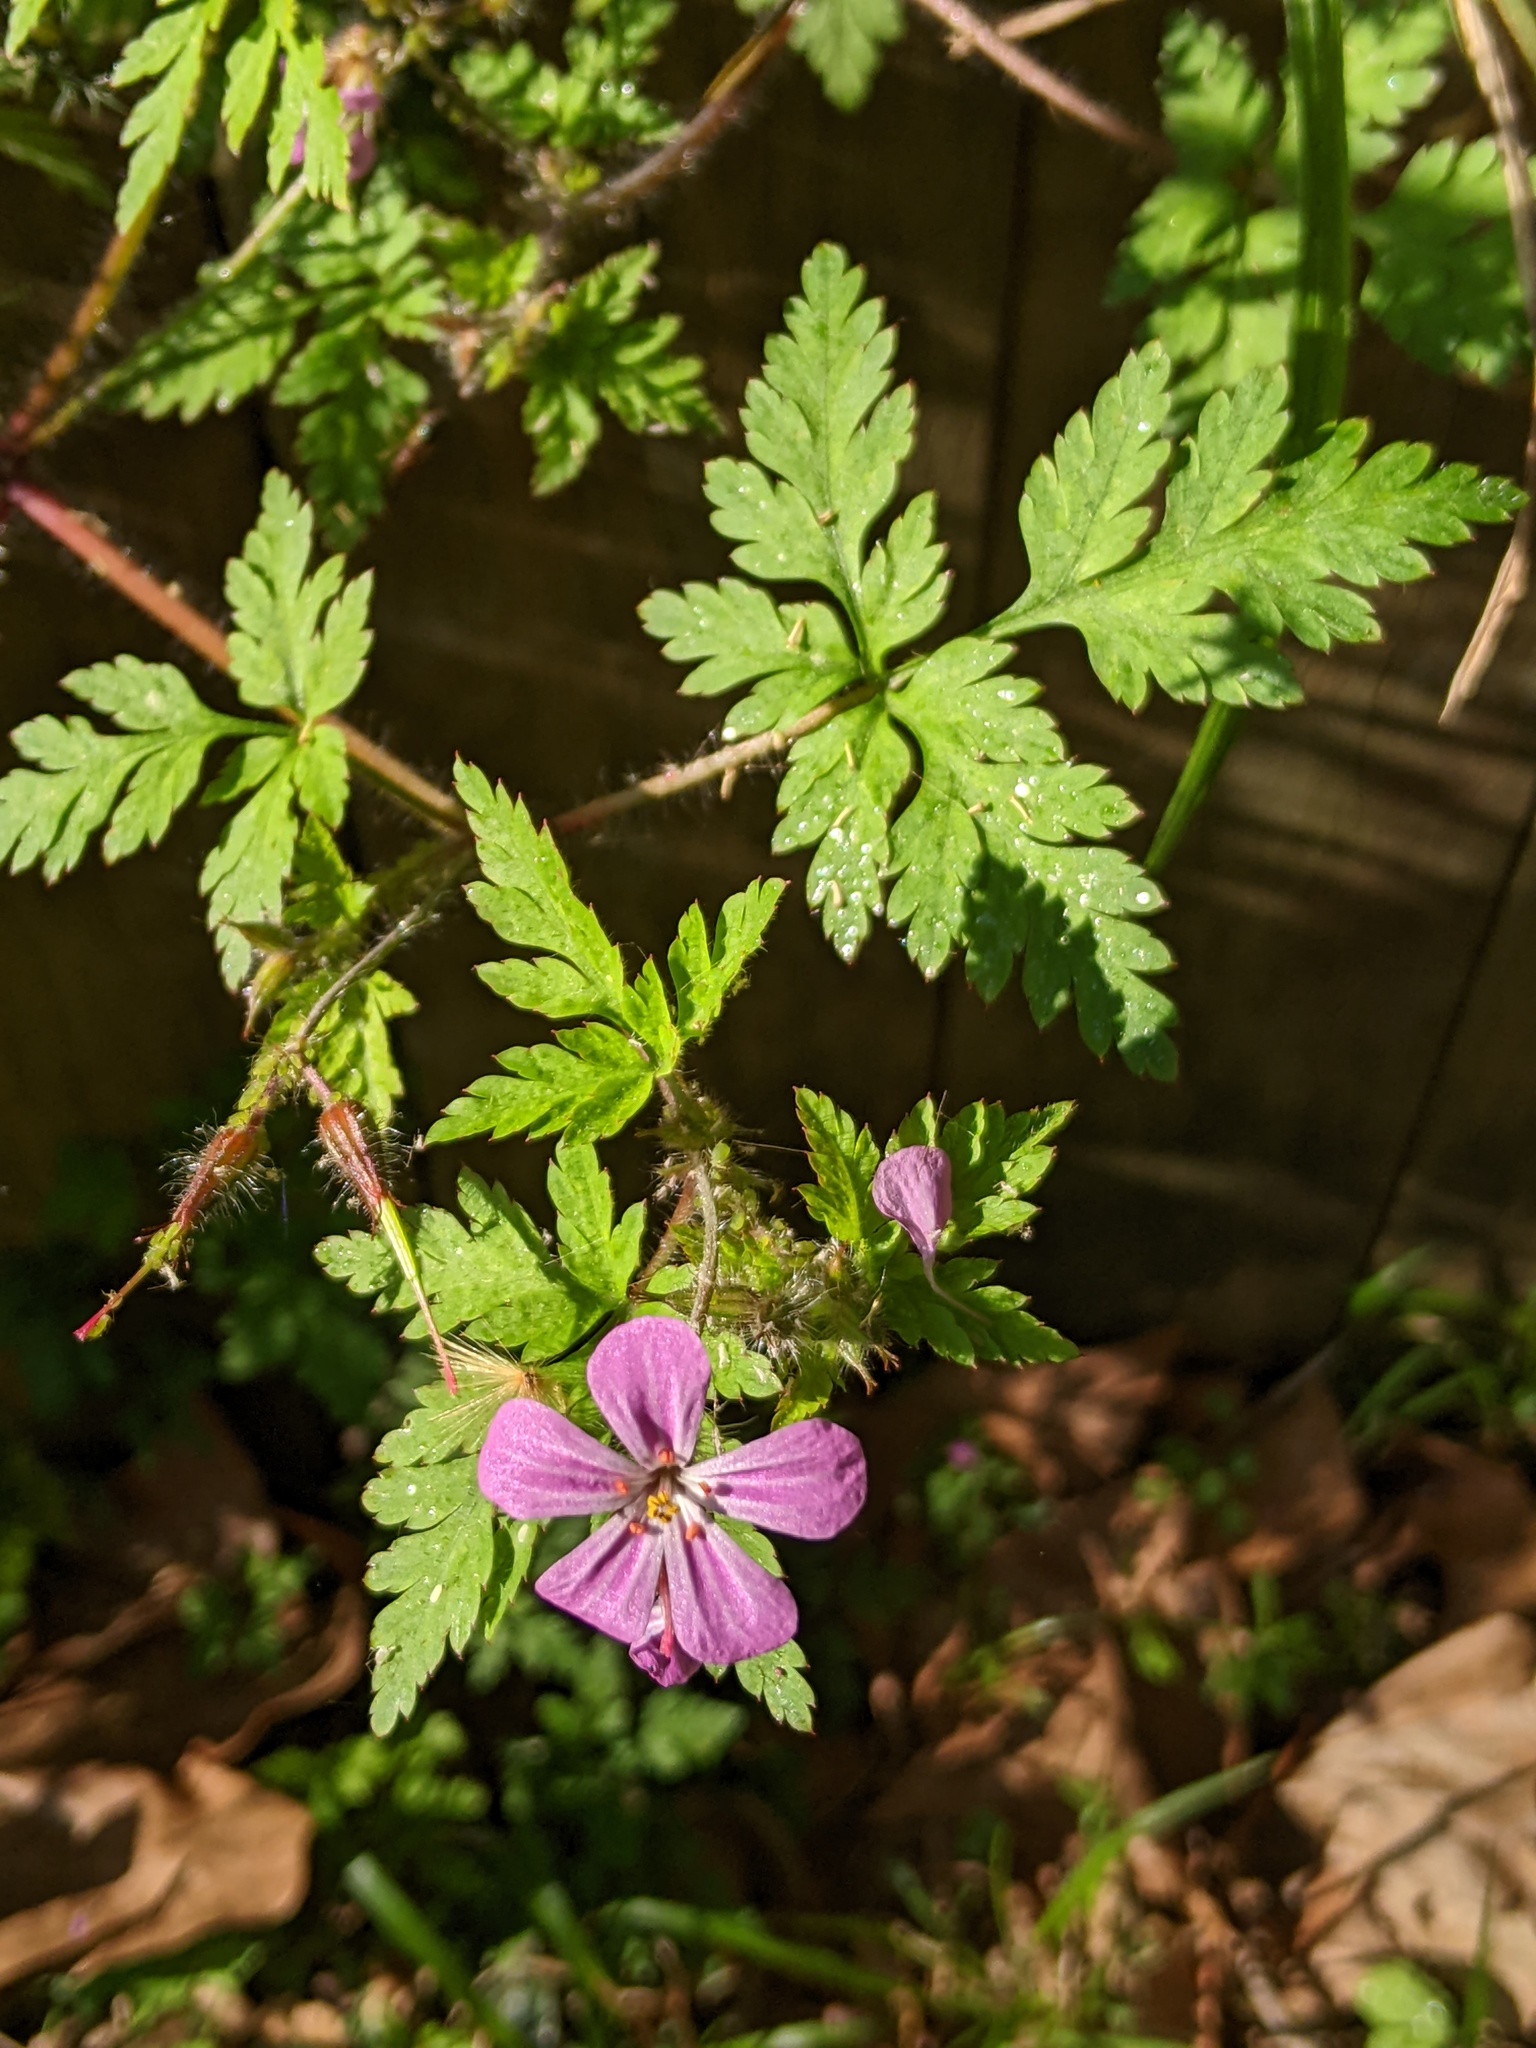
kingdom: Plantae
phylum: Tracheophyta
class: Magnoliopsida
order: Geraniales
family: Geraniaceae
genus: Geranium
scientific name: Geranium robertianum
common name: Herb-robert
